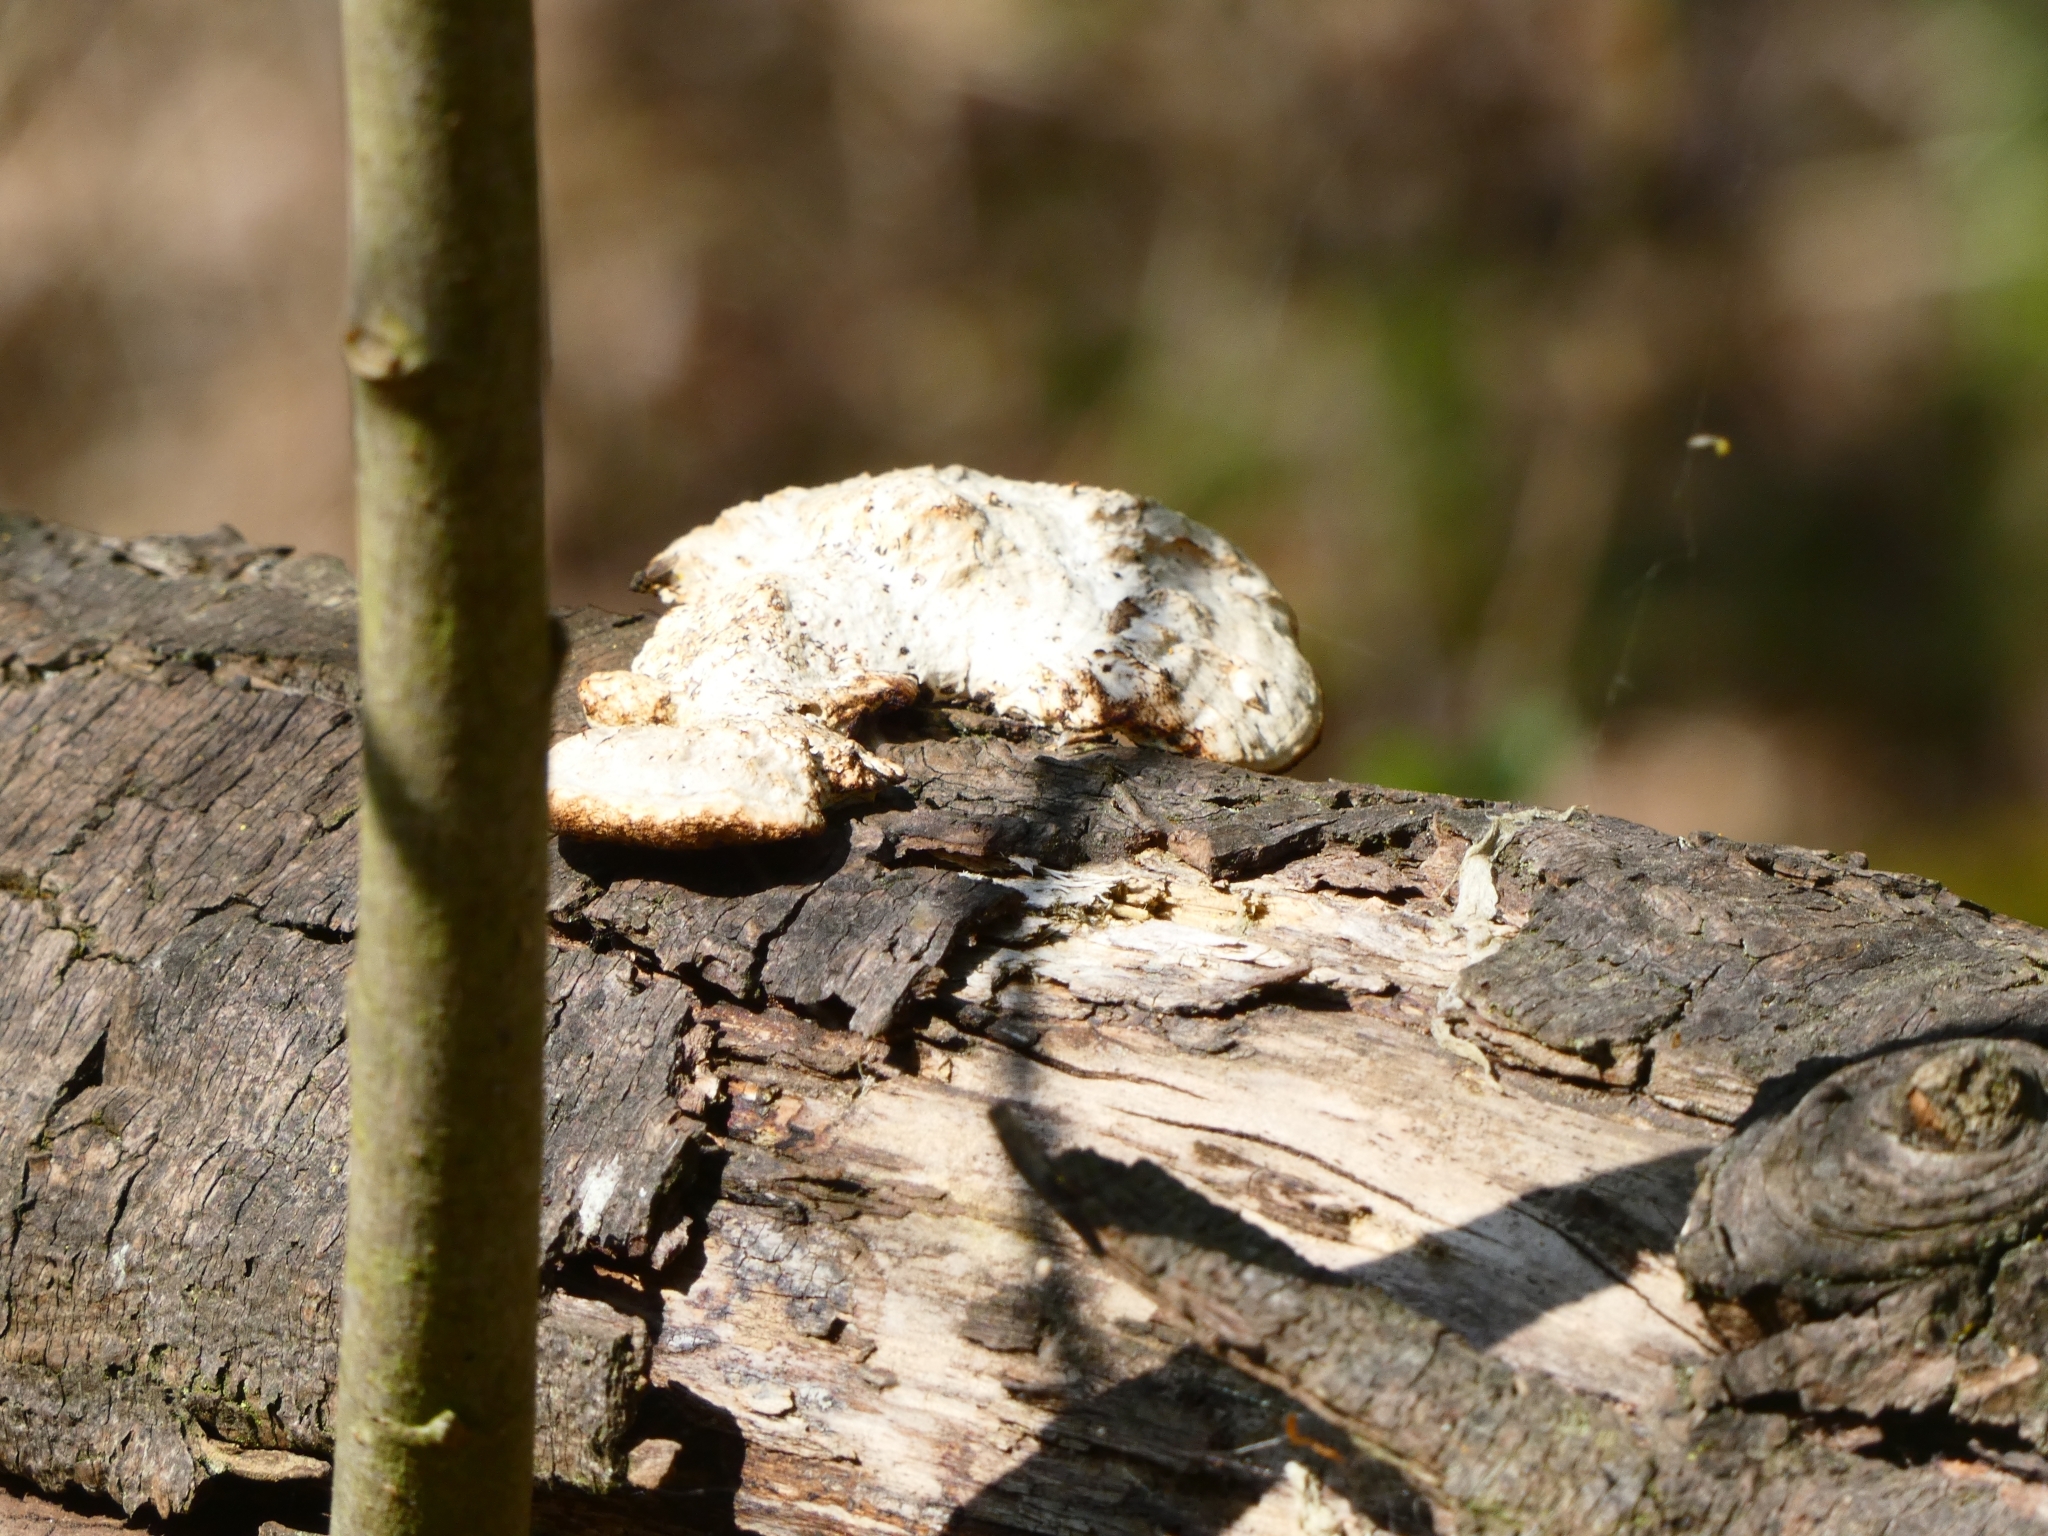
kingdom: Fungi
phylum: Basidiomycota
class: Agaricomycetes
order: Polyporales
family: Polyporaceae
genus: Daedaleopsis
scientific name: Daedaleopsis confragosa
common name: Blushing bracket
